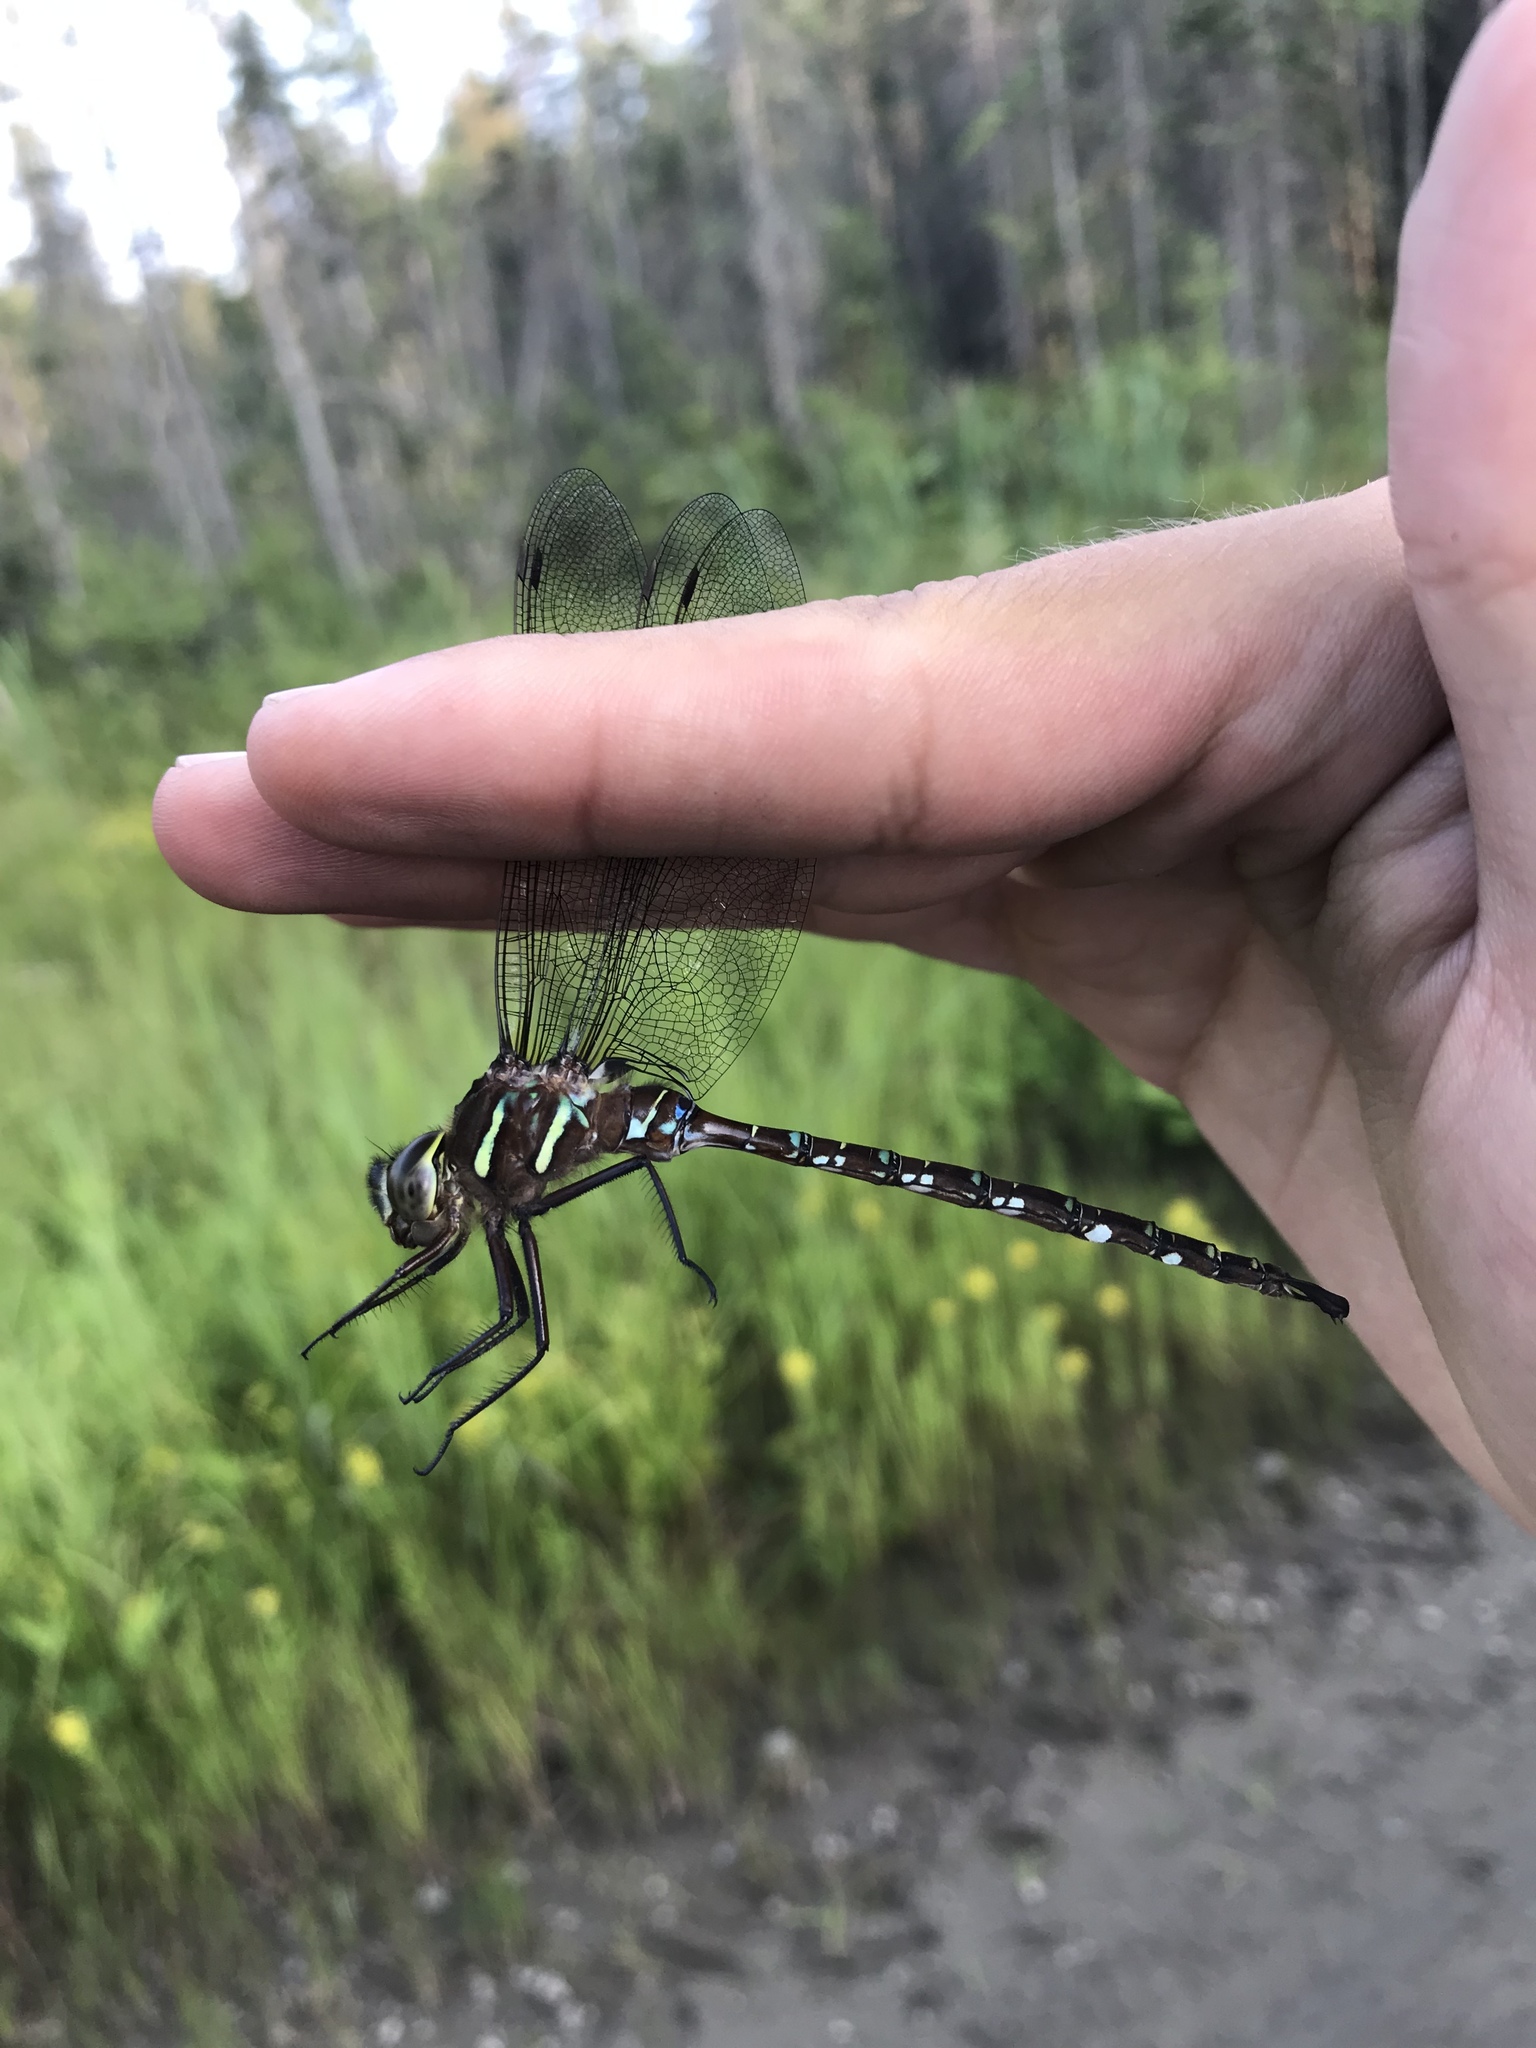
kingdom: Animalia
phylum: Arthropoda
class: Insecta
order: Odonata
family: Aeshnidae
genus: Aeshna
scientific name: Aeshna umbrosa
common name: Shadow darner
